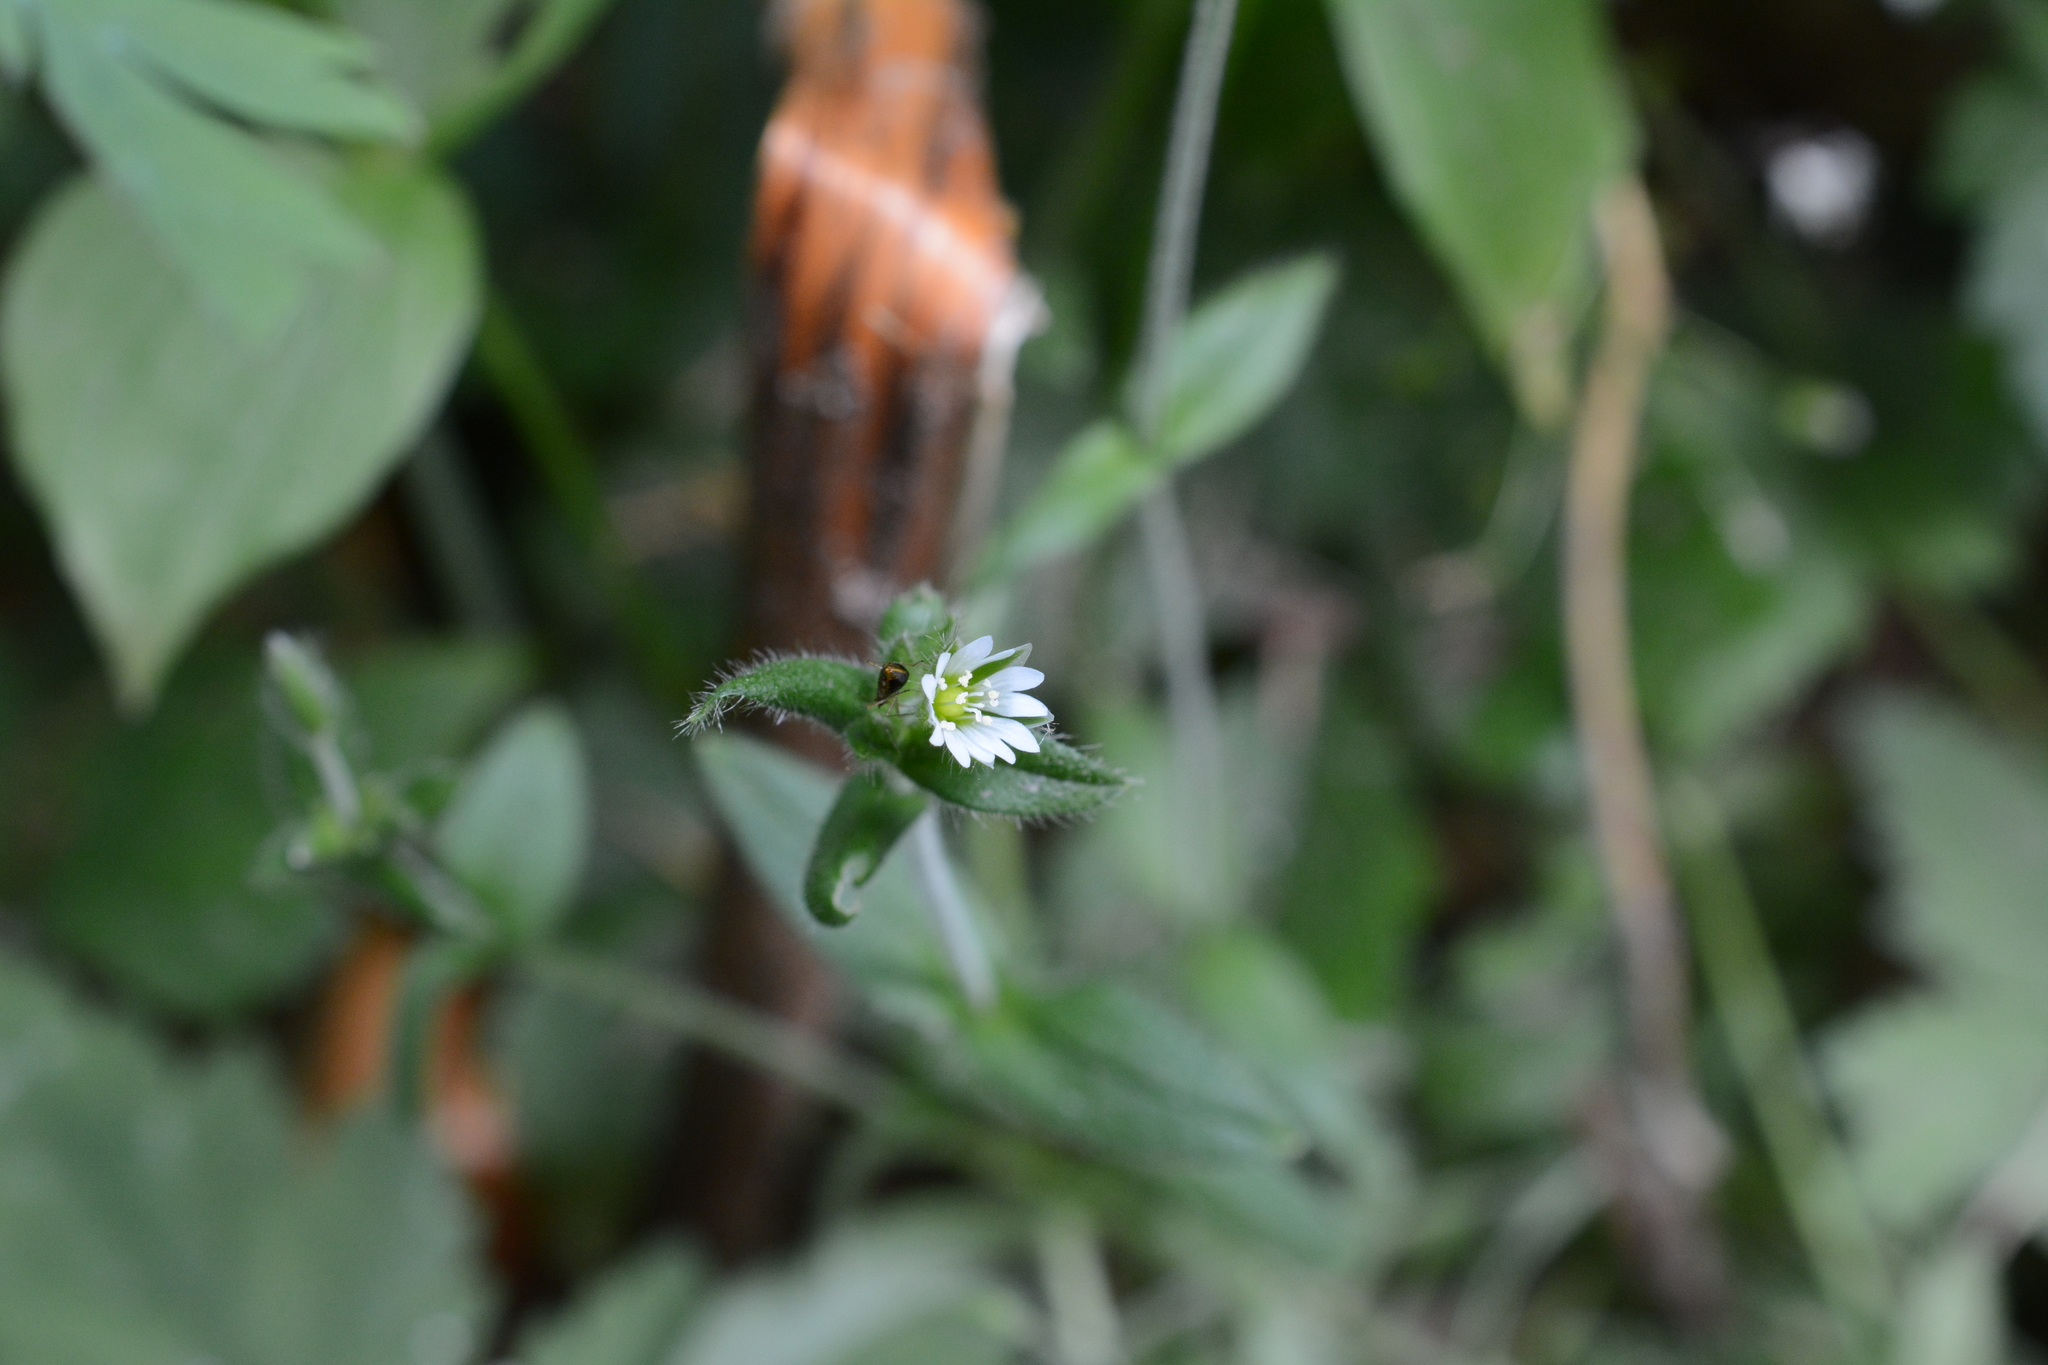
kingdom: Plantae
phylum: Tracheophyta
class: Magnoliopsida
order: Caryophyllales
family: Caryophyllaceae
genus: Cerastium
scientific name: Cerastium fontanum
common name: Common mouse-ear
